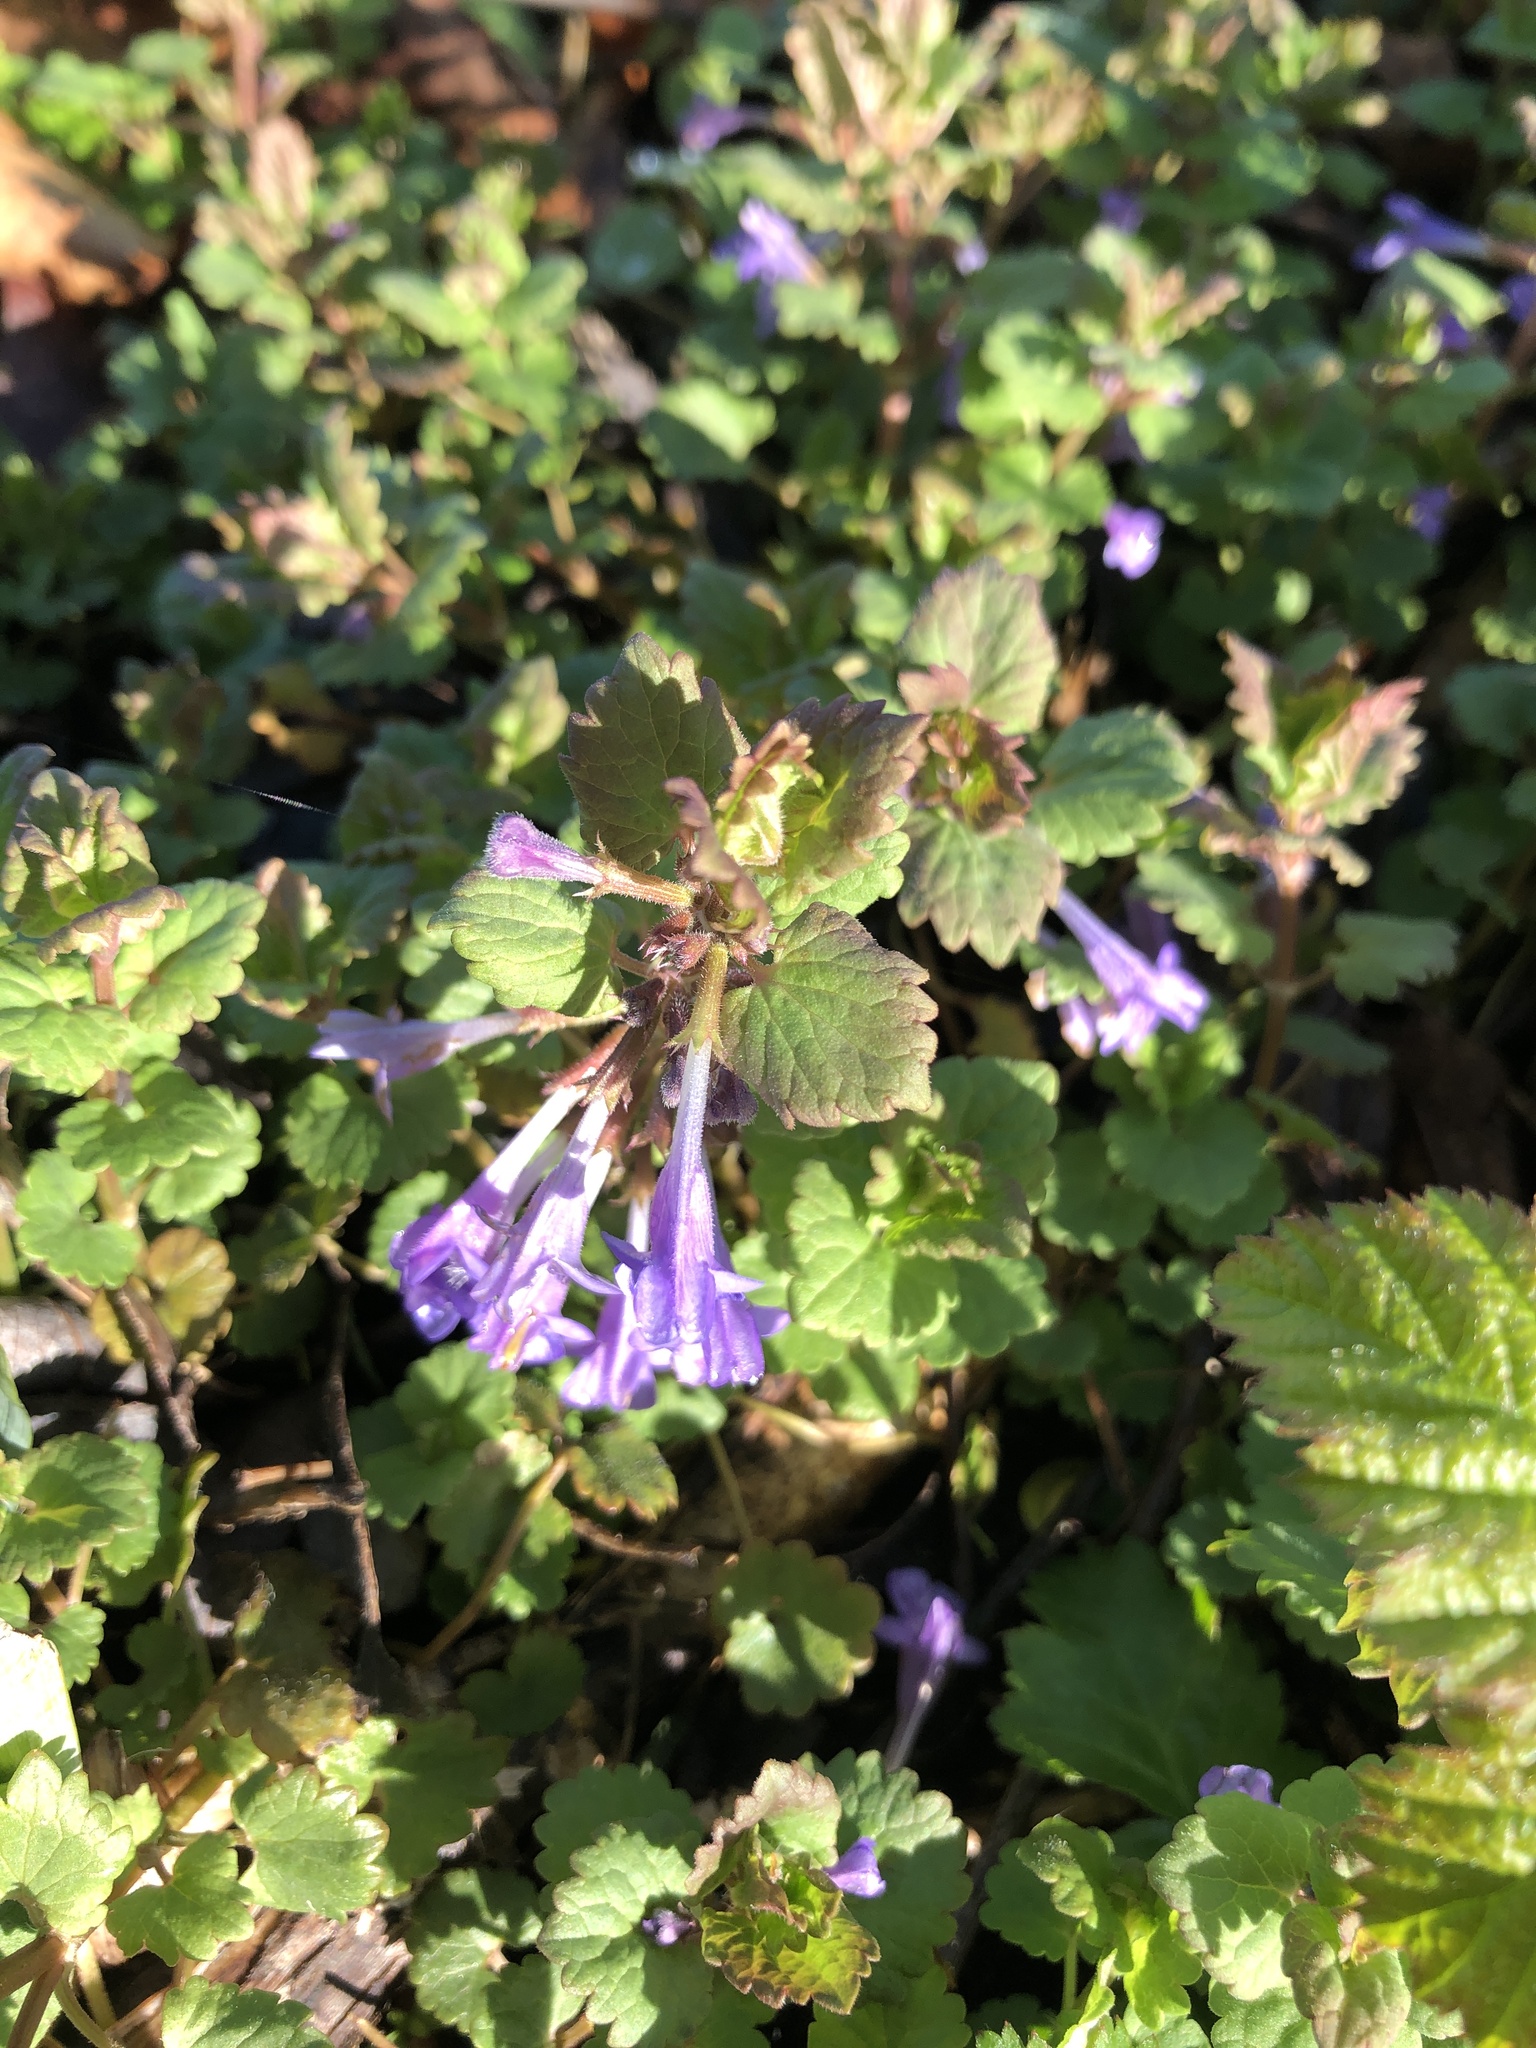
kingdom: Plantae
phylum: Tracheophyta
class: Magnoliopsida
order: Lamiales
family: Lamiaceae
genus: Glechoma
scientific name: Glechoma hederacea
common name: Ground ivy
